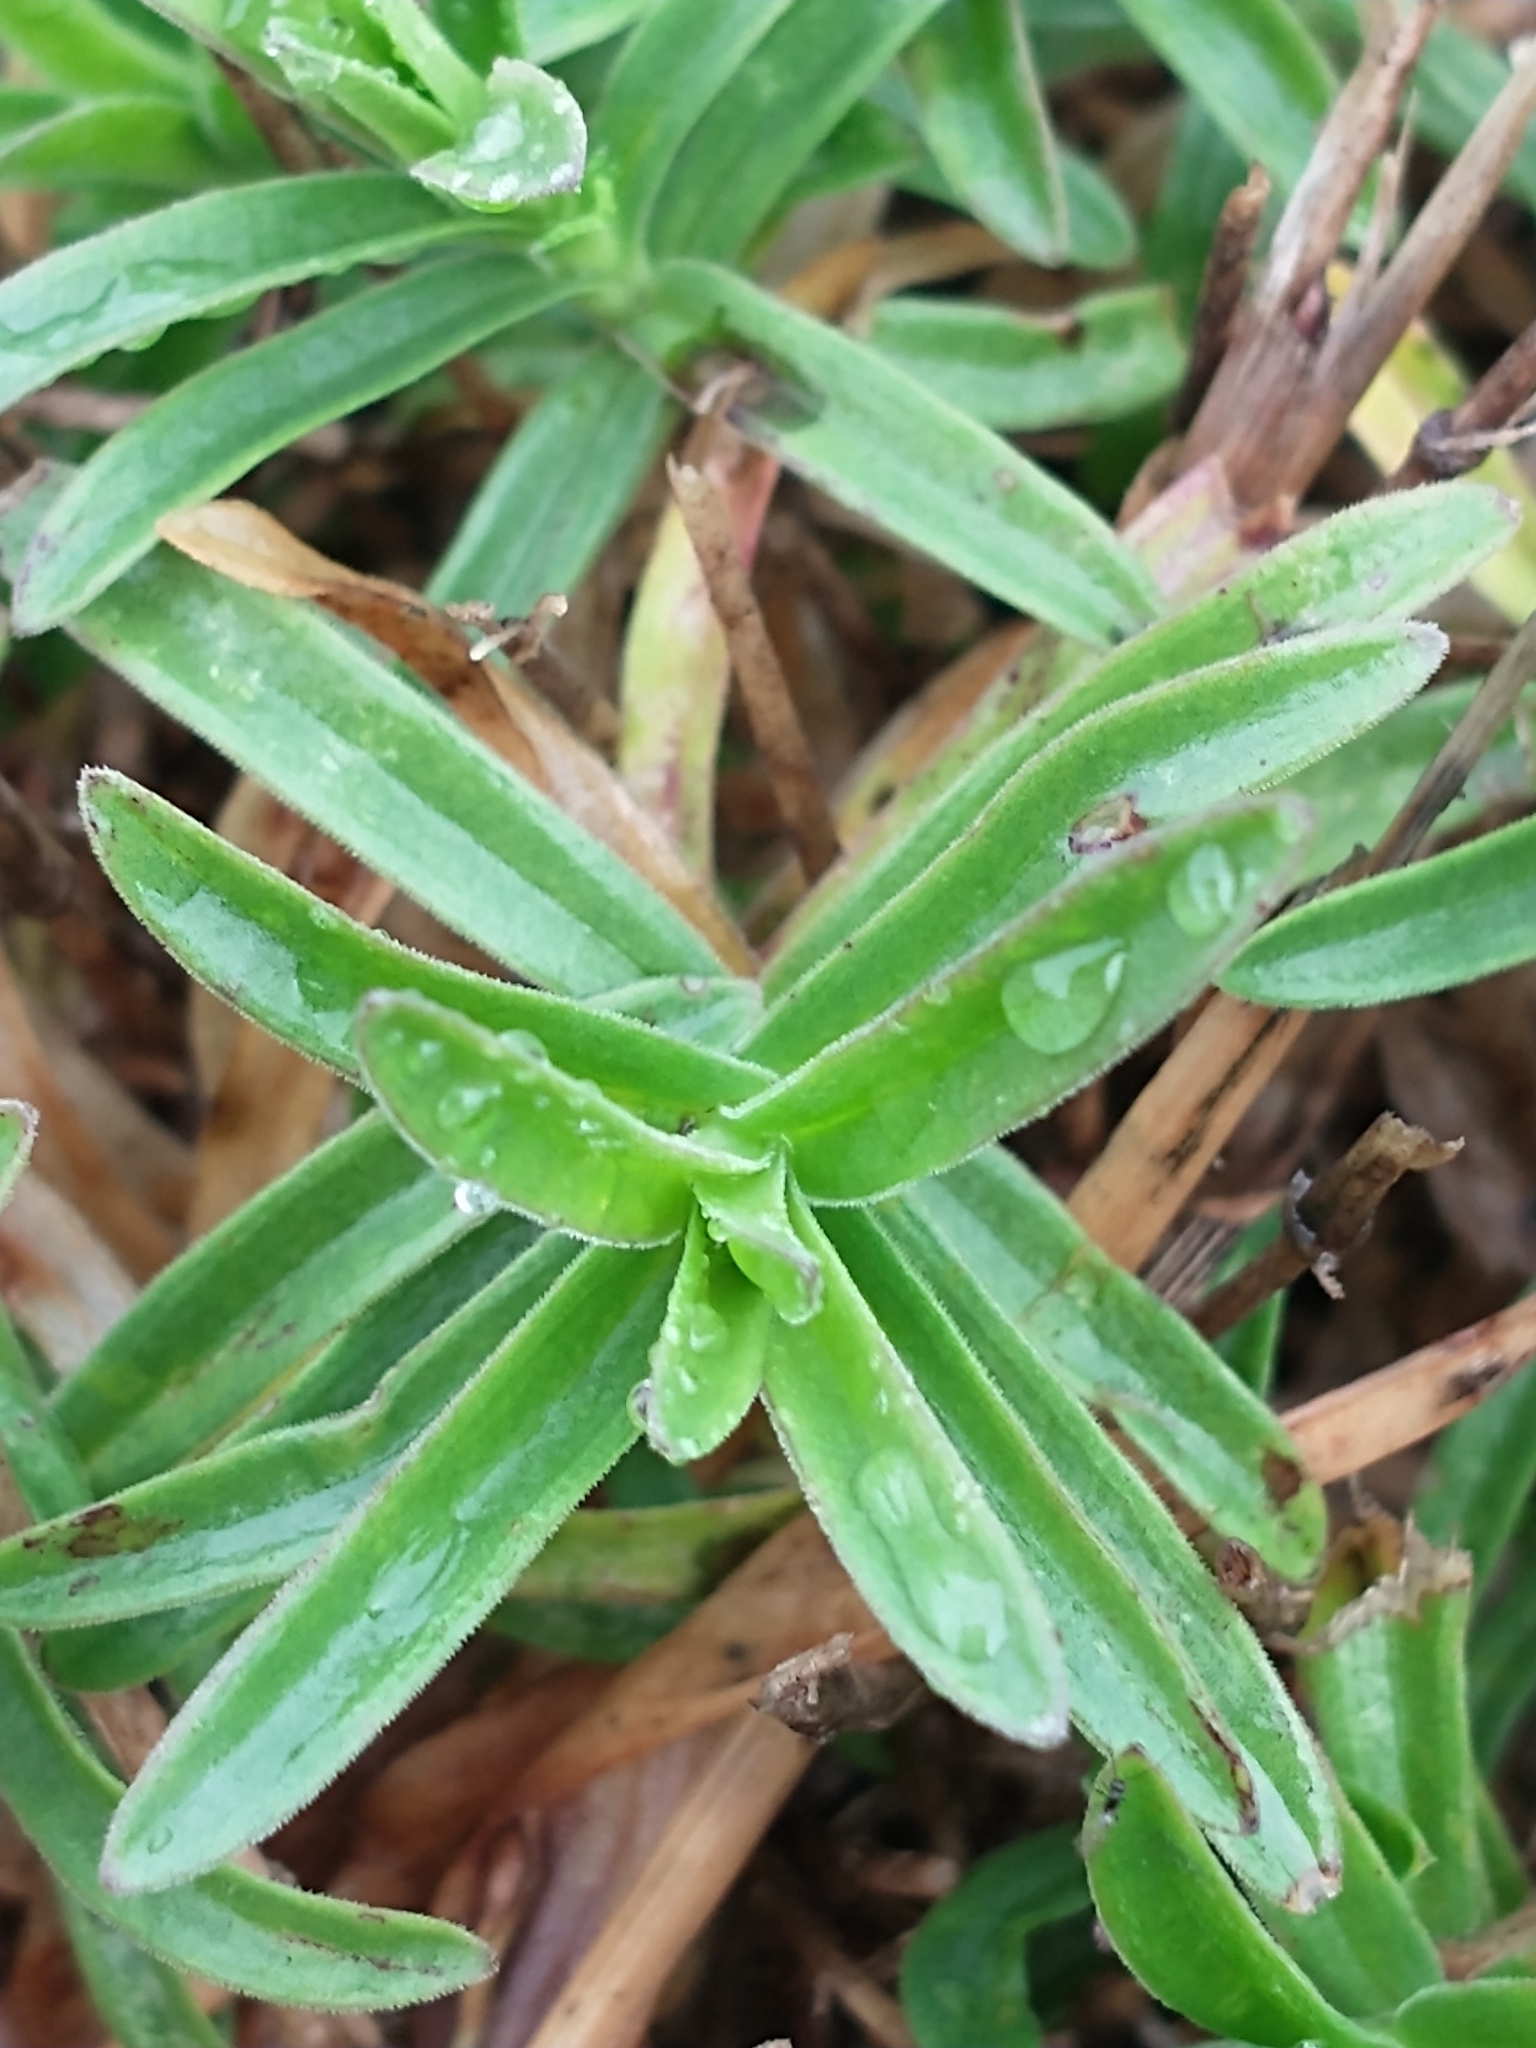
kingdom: Plantae
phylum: Tracheophyta
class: Magnoliopsida
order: Caryophyllales
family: Caryophyllaceae
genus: Dianthus
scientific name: Dianthus deltoides
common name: Maiden pink
